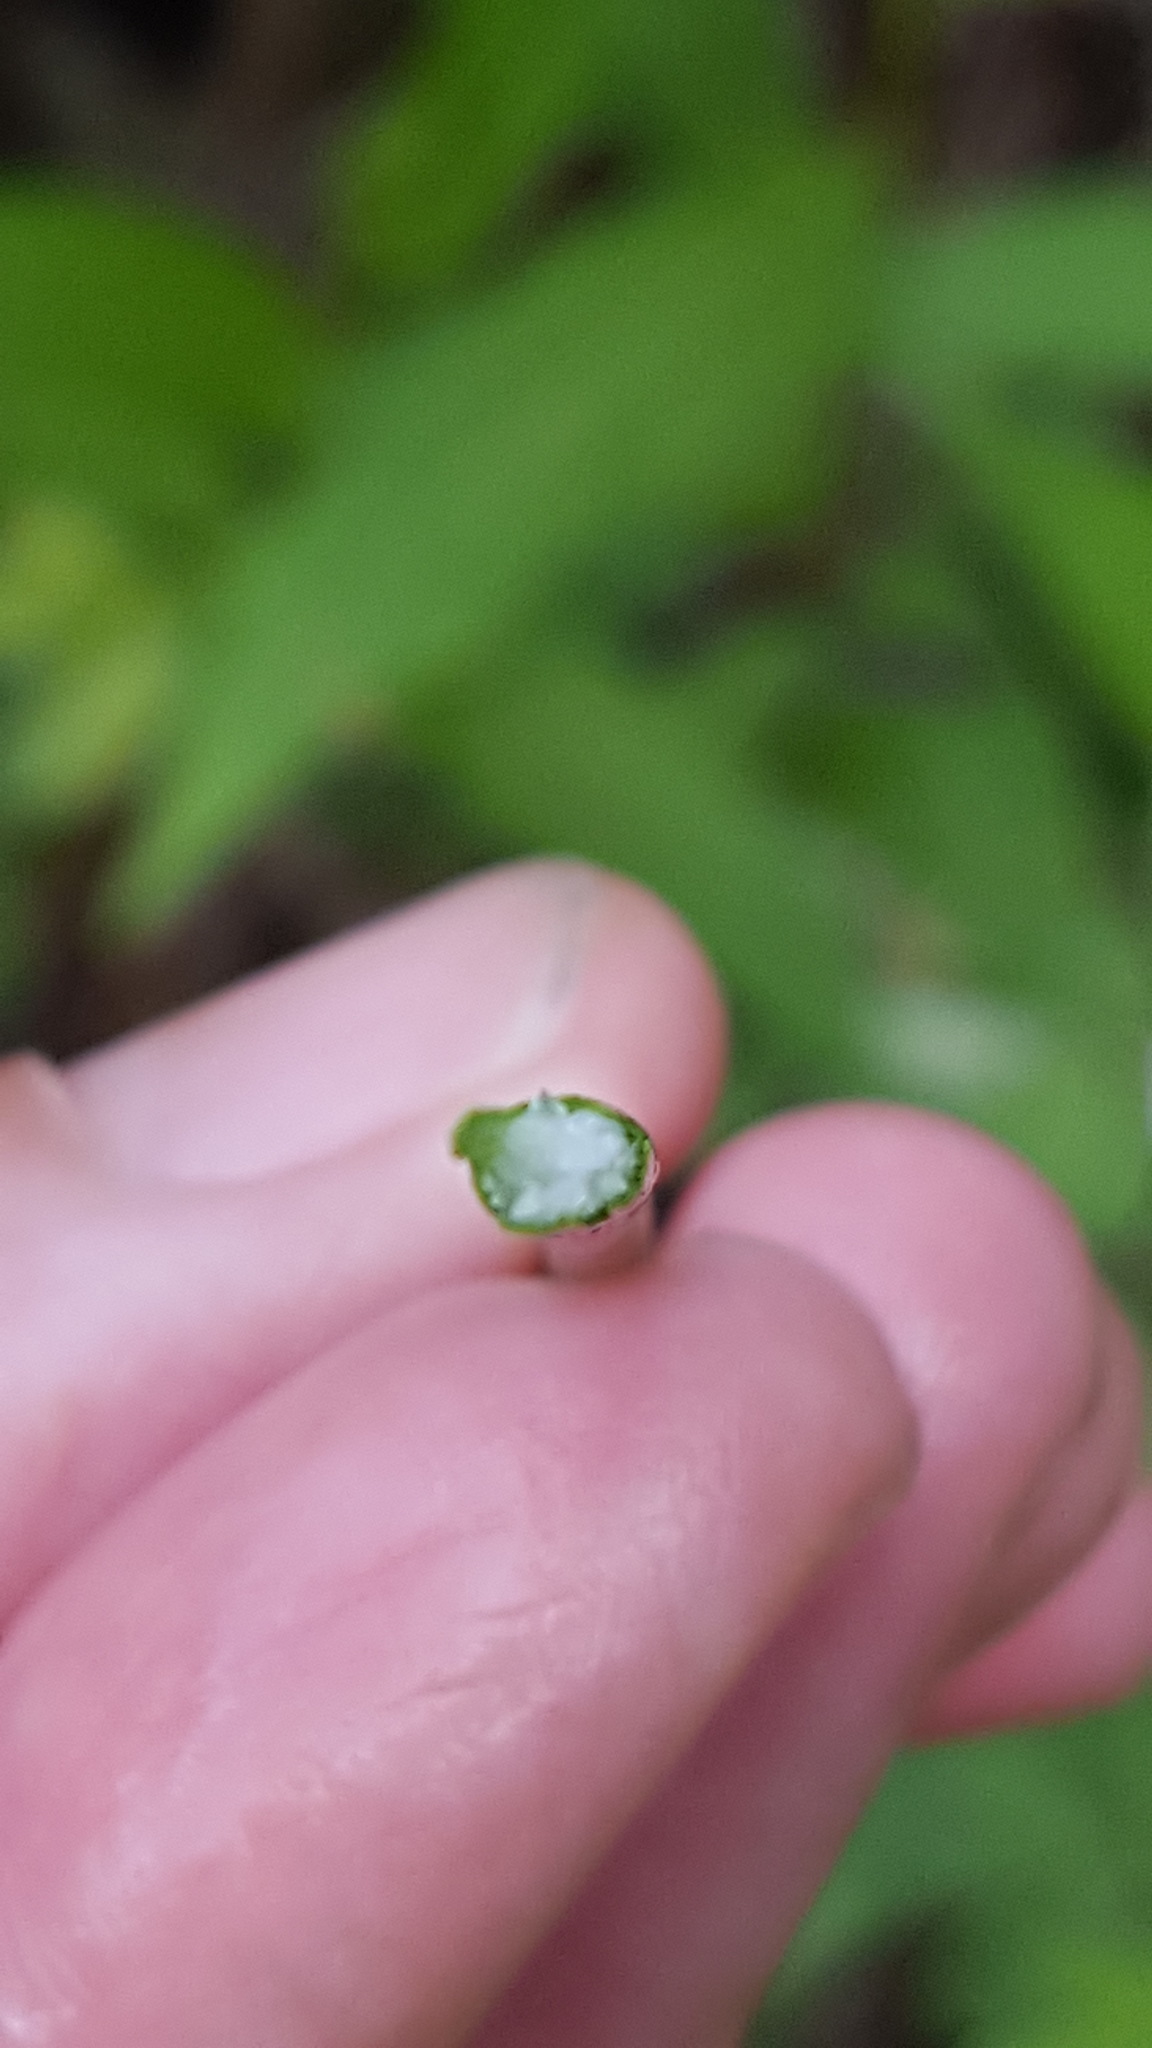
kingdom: Plantae
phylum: Tracheophyta
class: Liliopsida
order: Poales
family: Cyperaceae
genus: Eleocharis
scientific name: Eleocharis palustris
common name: Common spike-rush
